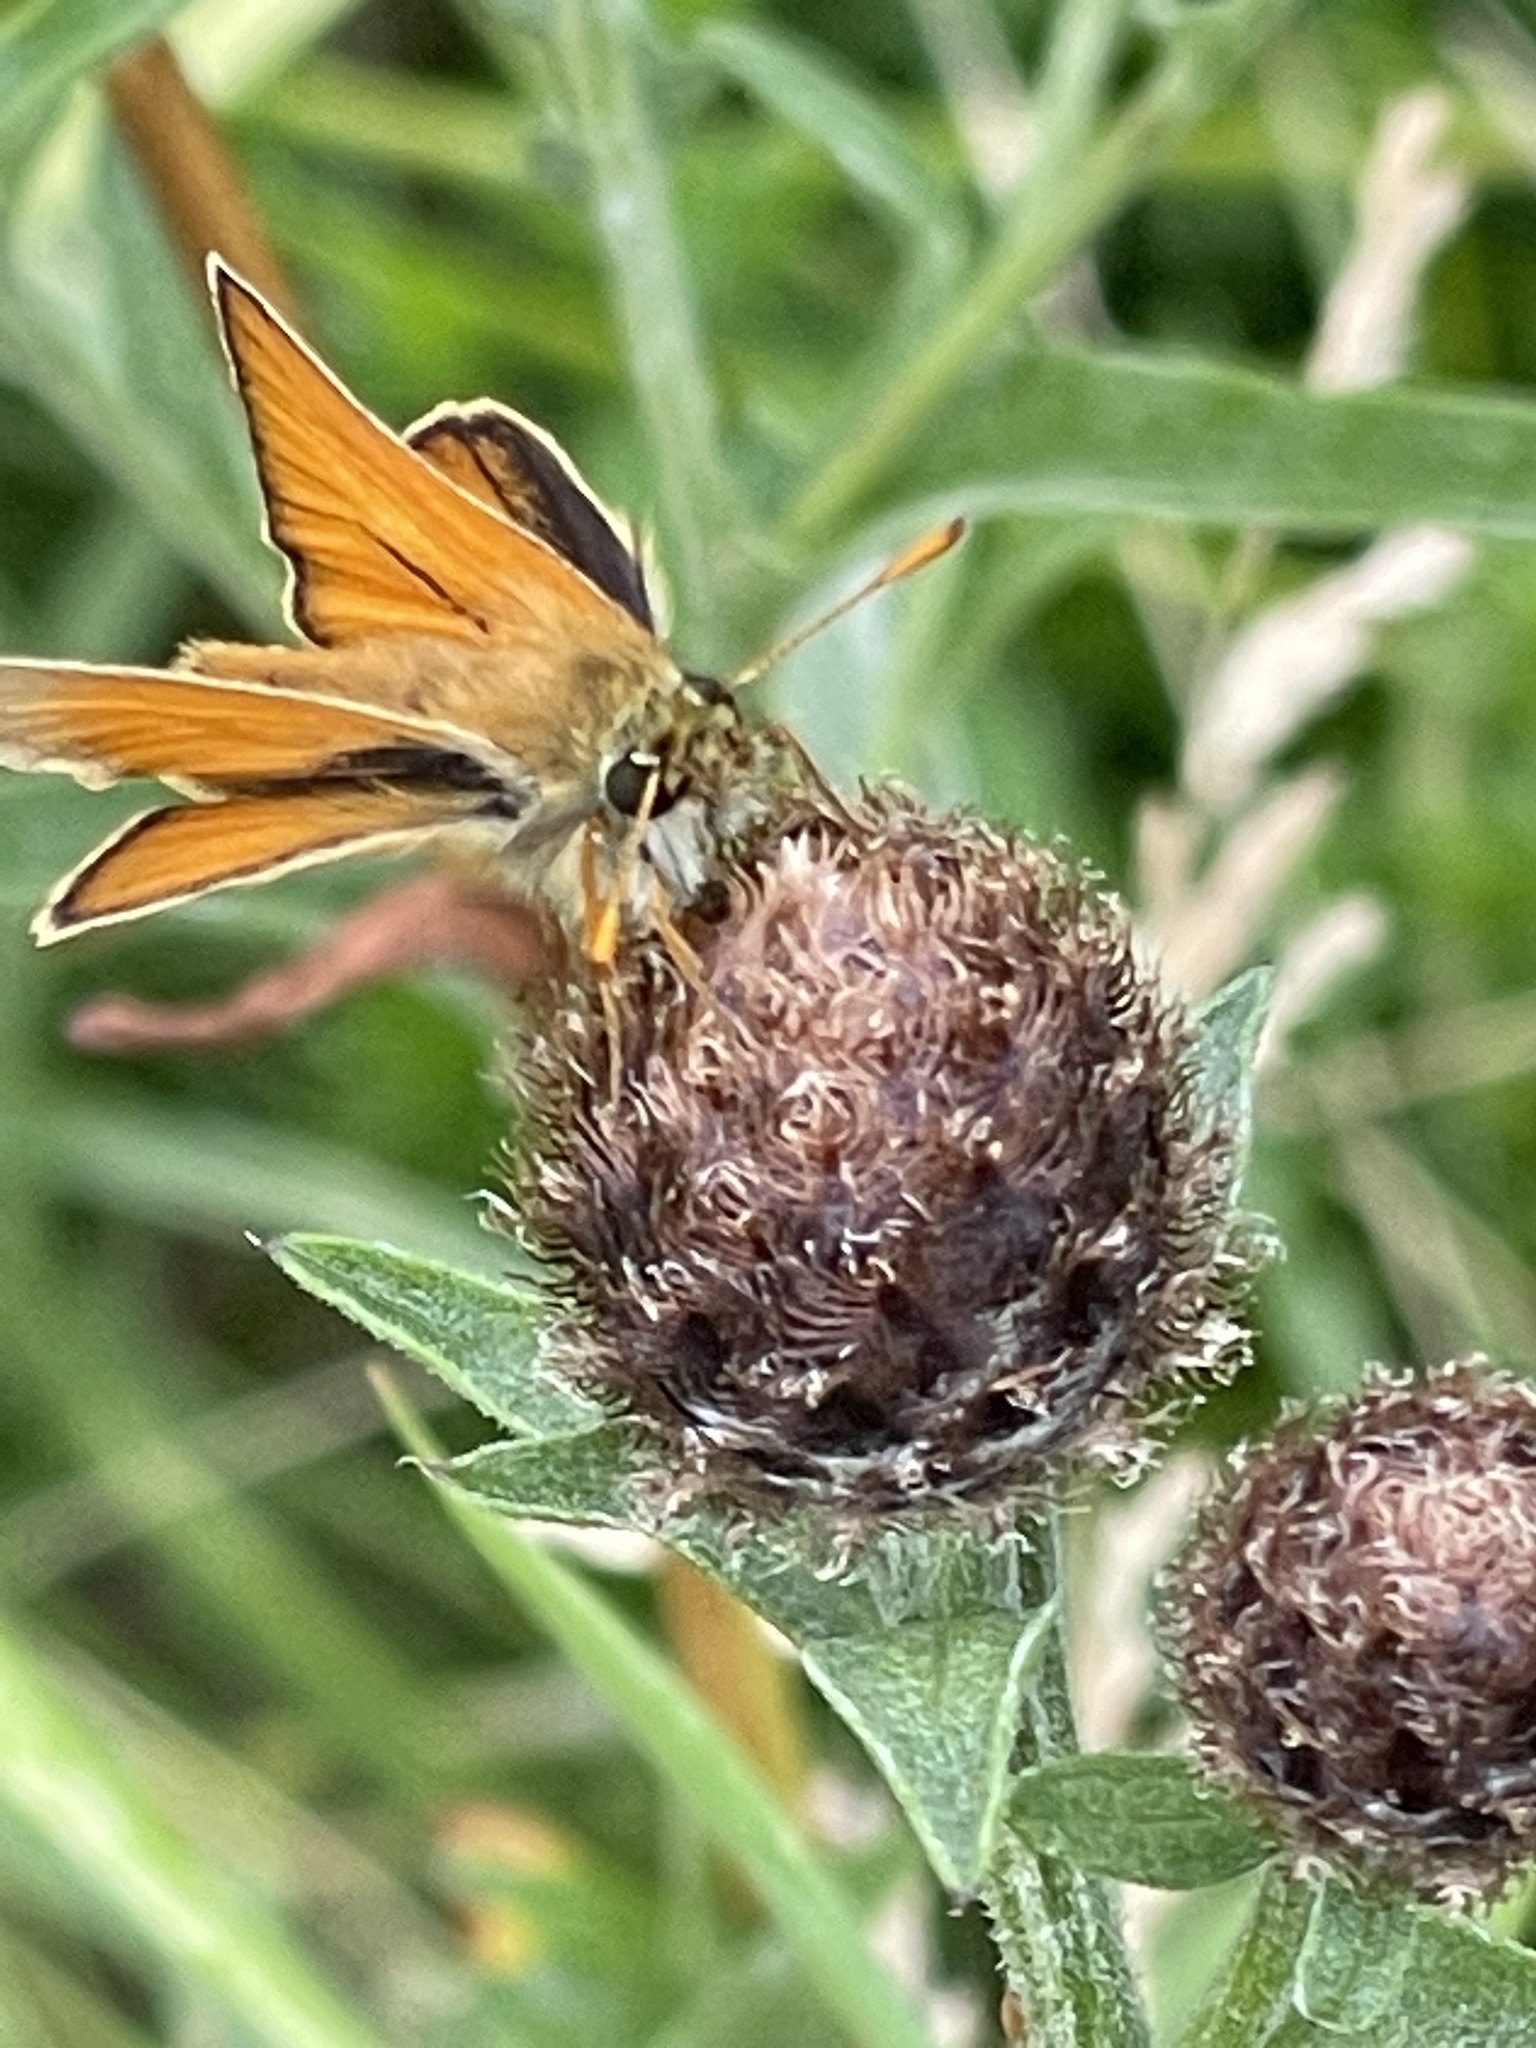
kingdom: Animalia
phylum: Arthropoda
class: Insecta
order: Lepidoptera
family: Hesperiidae
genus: Thymelicus
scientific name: Thymelicus sylvestris
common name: Small skipper
